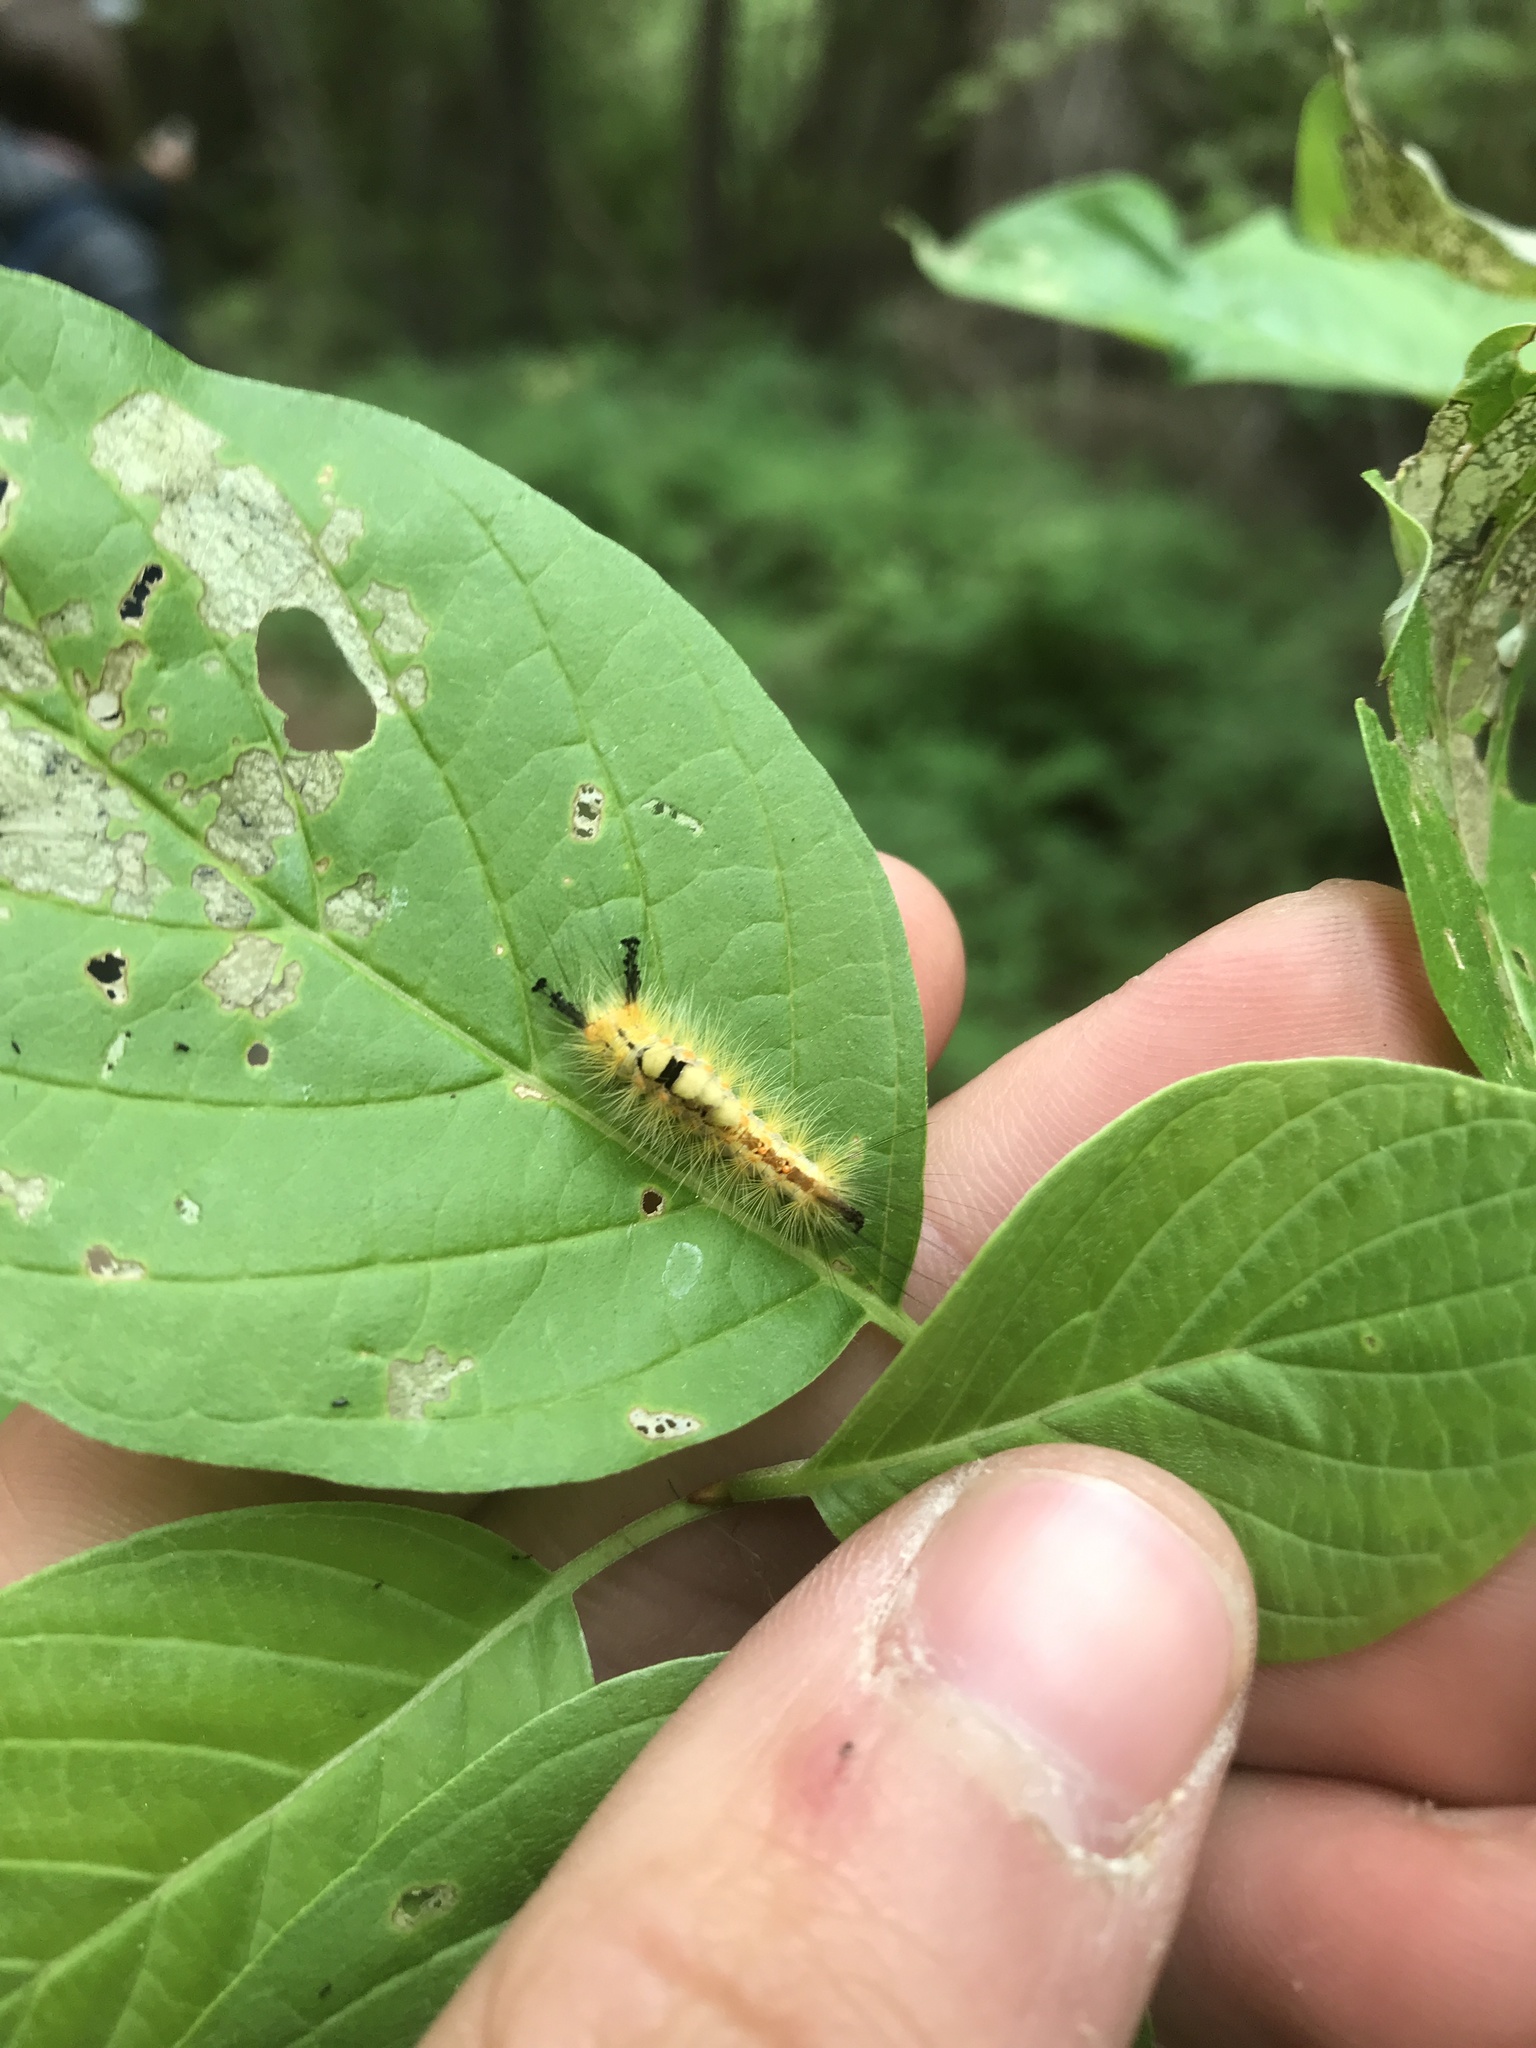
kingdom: Animalia
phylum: Arthropoda
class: Insecta
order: Lepidoptera
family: Erebidae
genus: Orgyia
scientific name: Orgyia antiqua
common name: Vapourer
